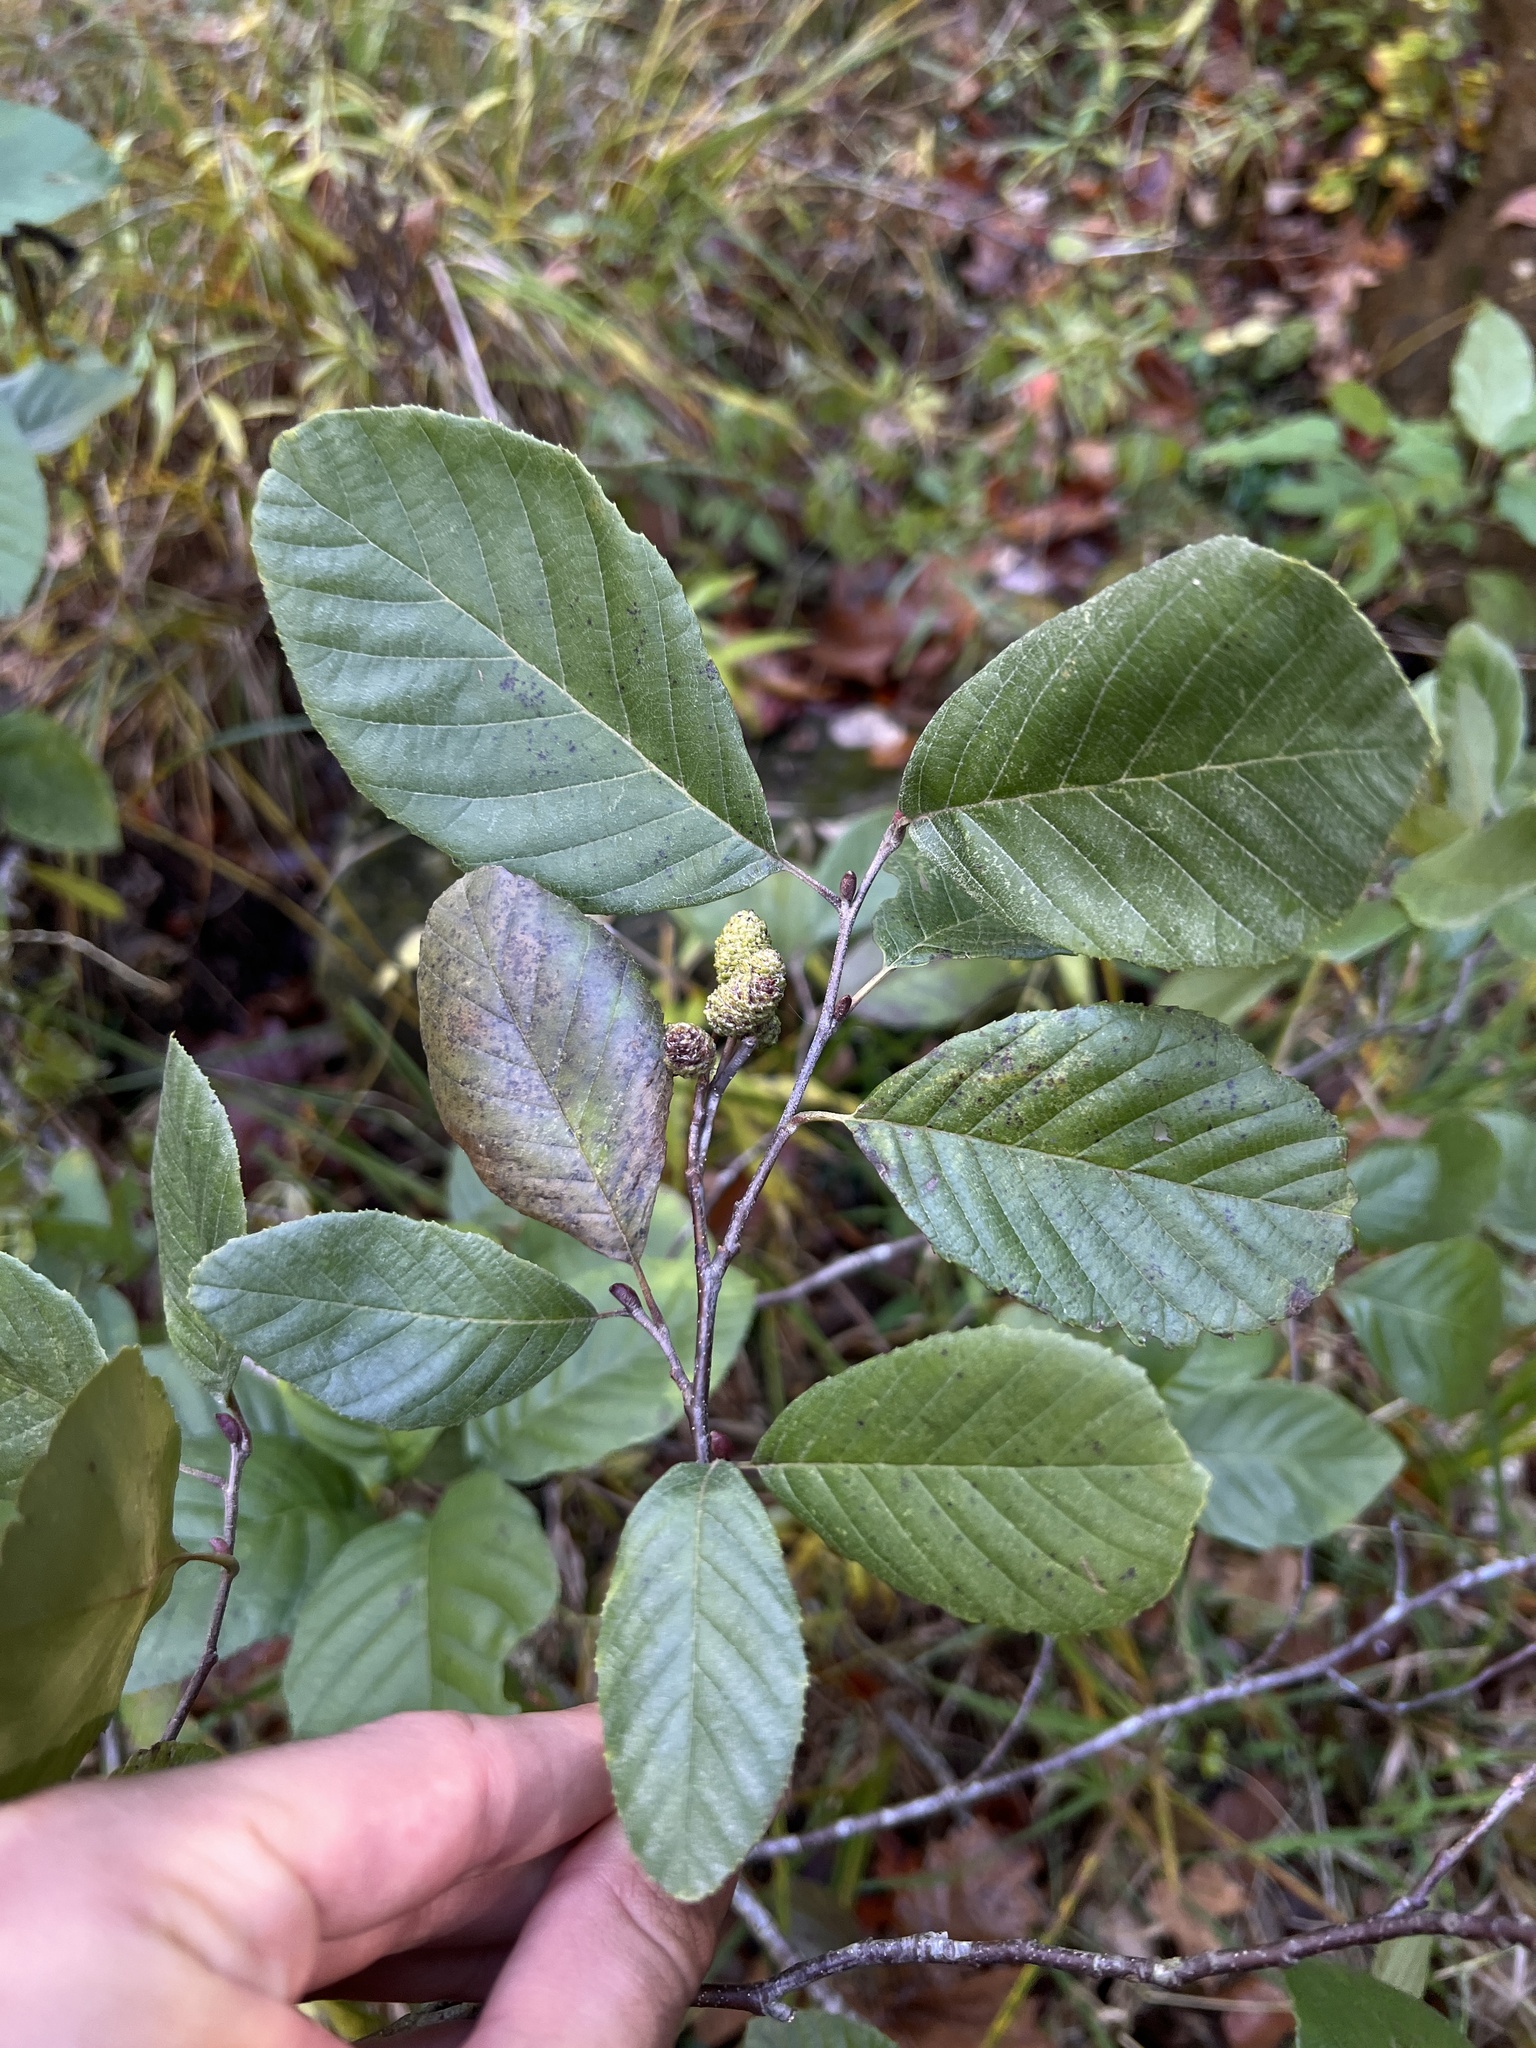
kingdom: Plantae
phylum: Tracheophyta
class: Magnoliopsida
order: Fagales
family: Betulaceae
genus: Alnus
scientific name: Alnus serrulata
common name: Hazel alder
